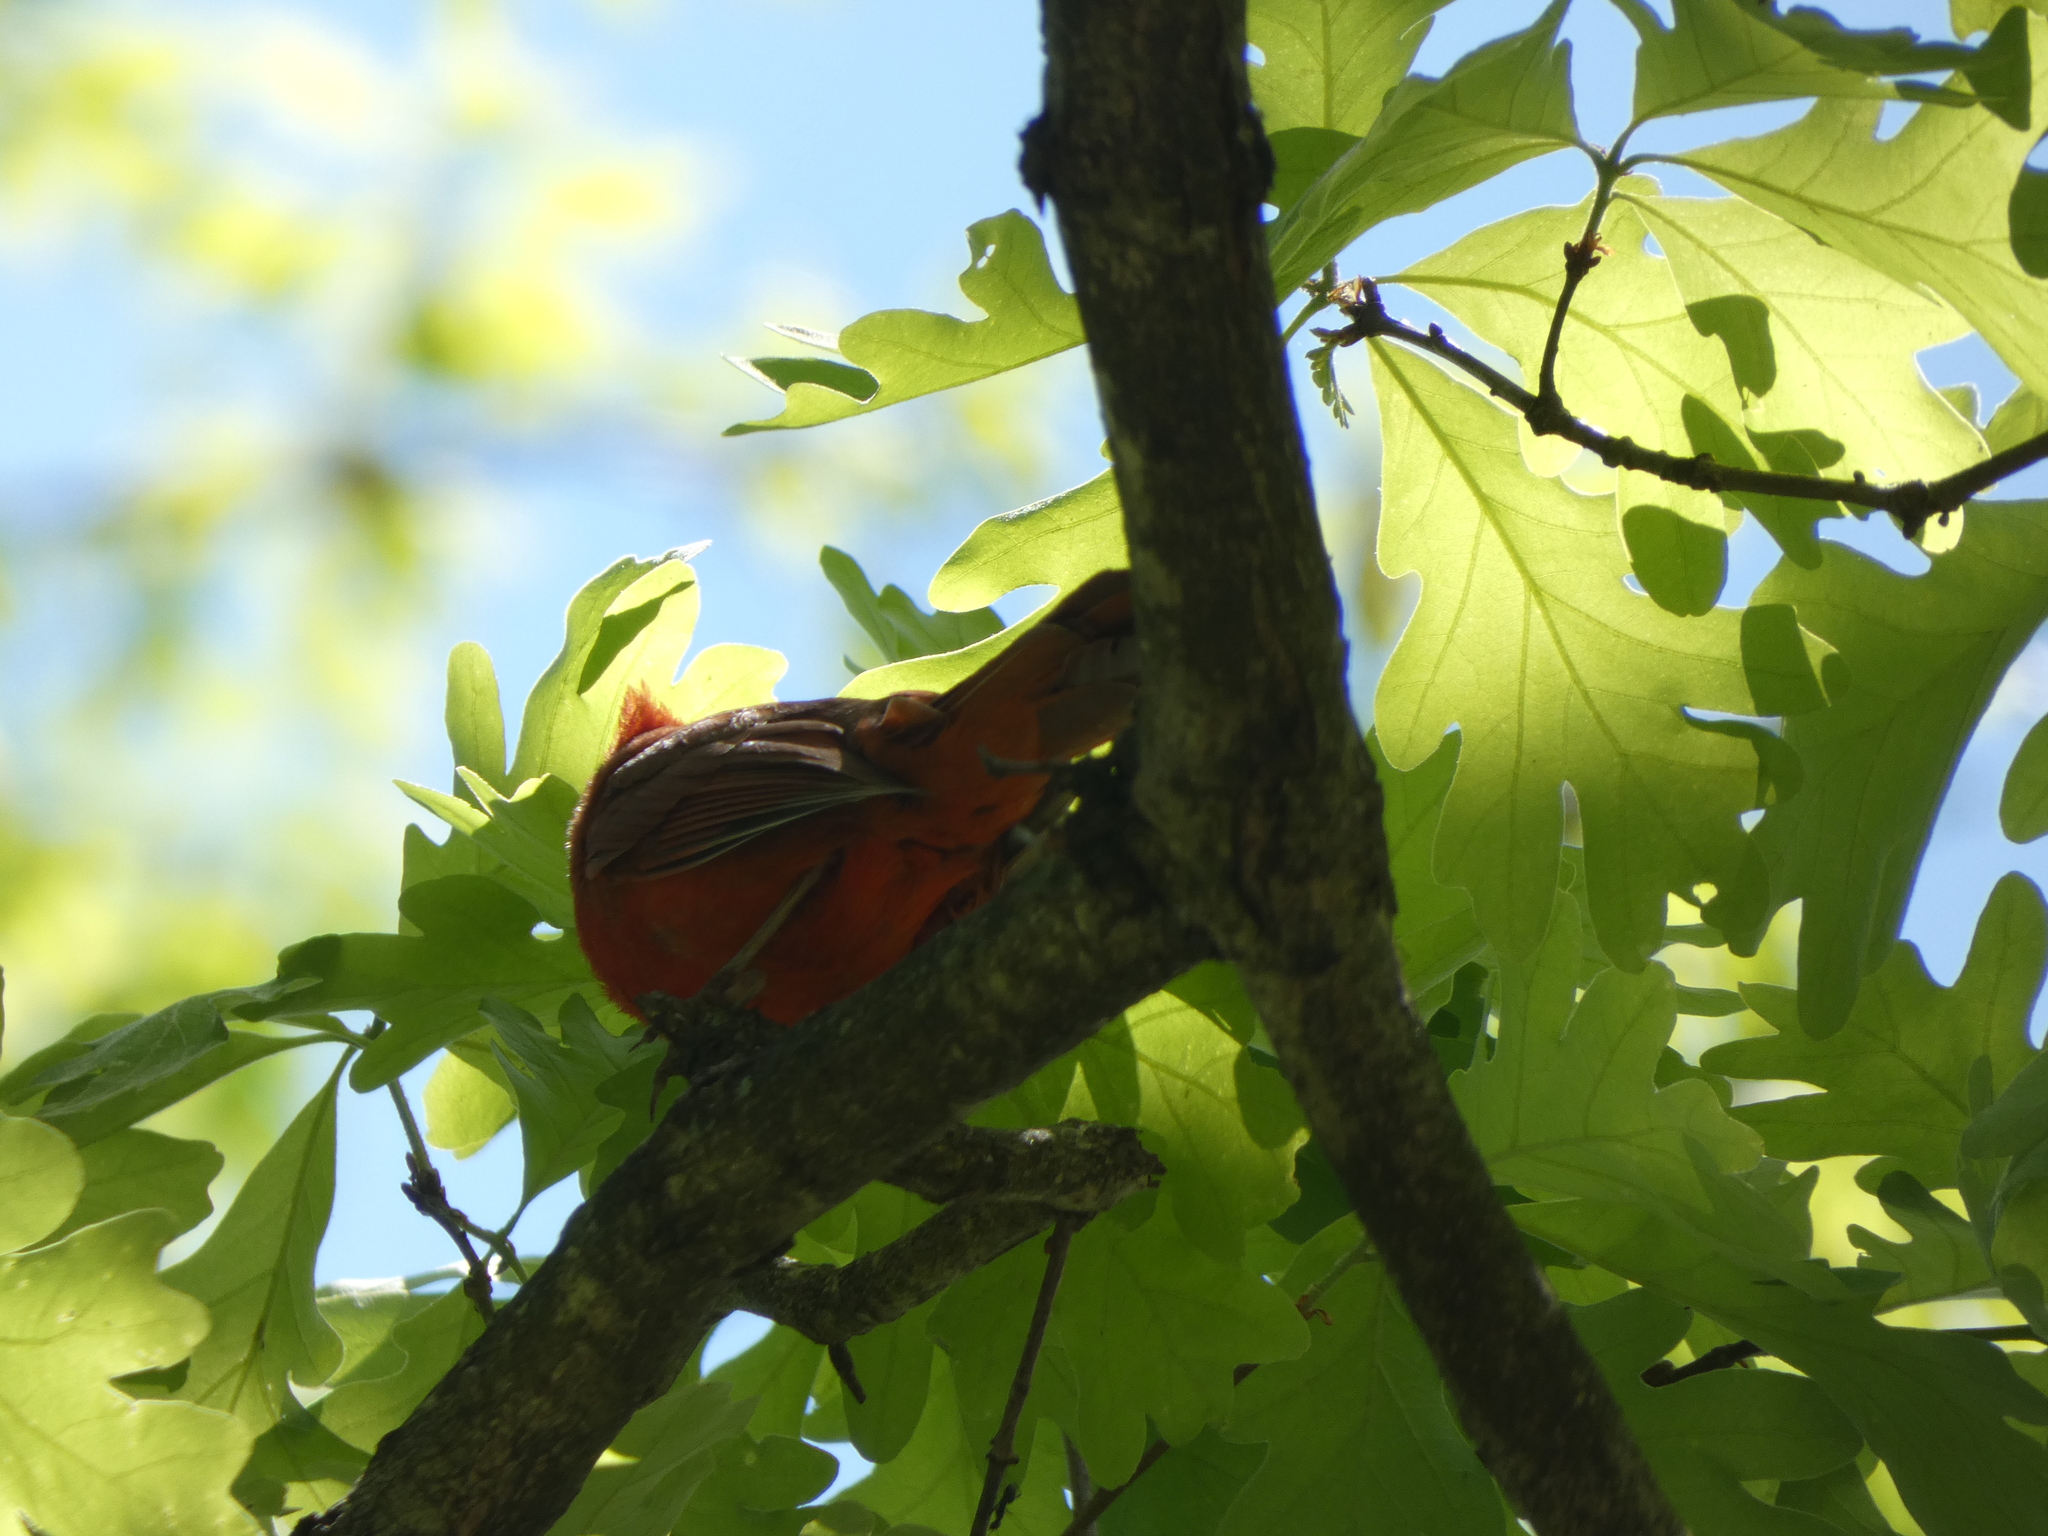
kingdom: Animalia
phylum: Chordata
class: Aves
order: Passeriformes
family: Cardinalidae
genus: Cardinalis
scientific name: Cardinalis cardinalis
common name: Northern cardinal
